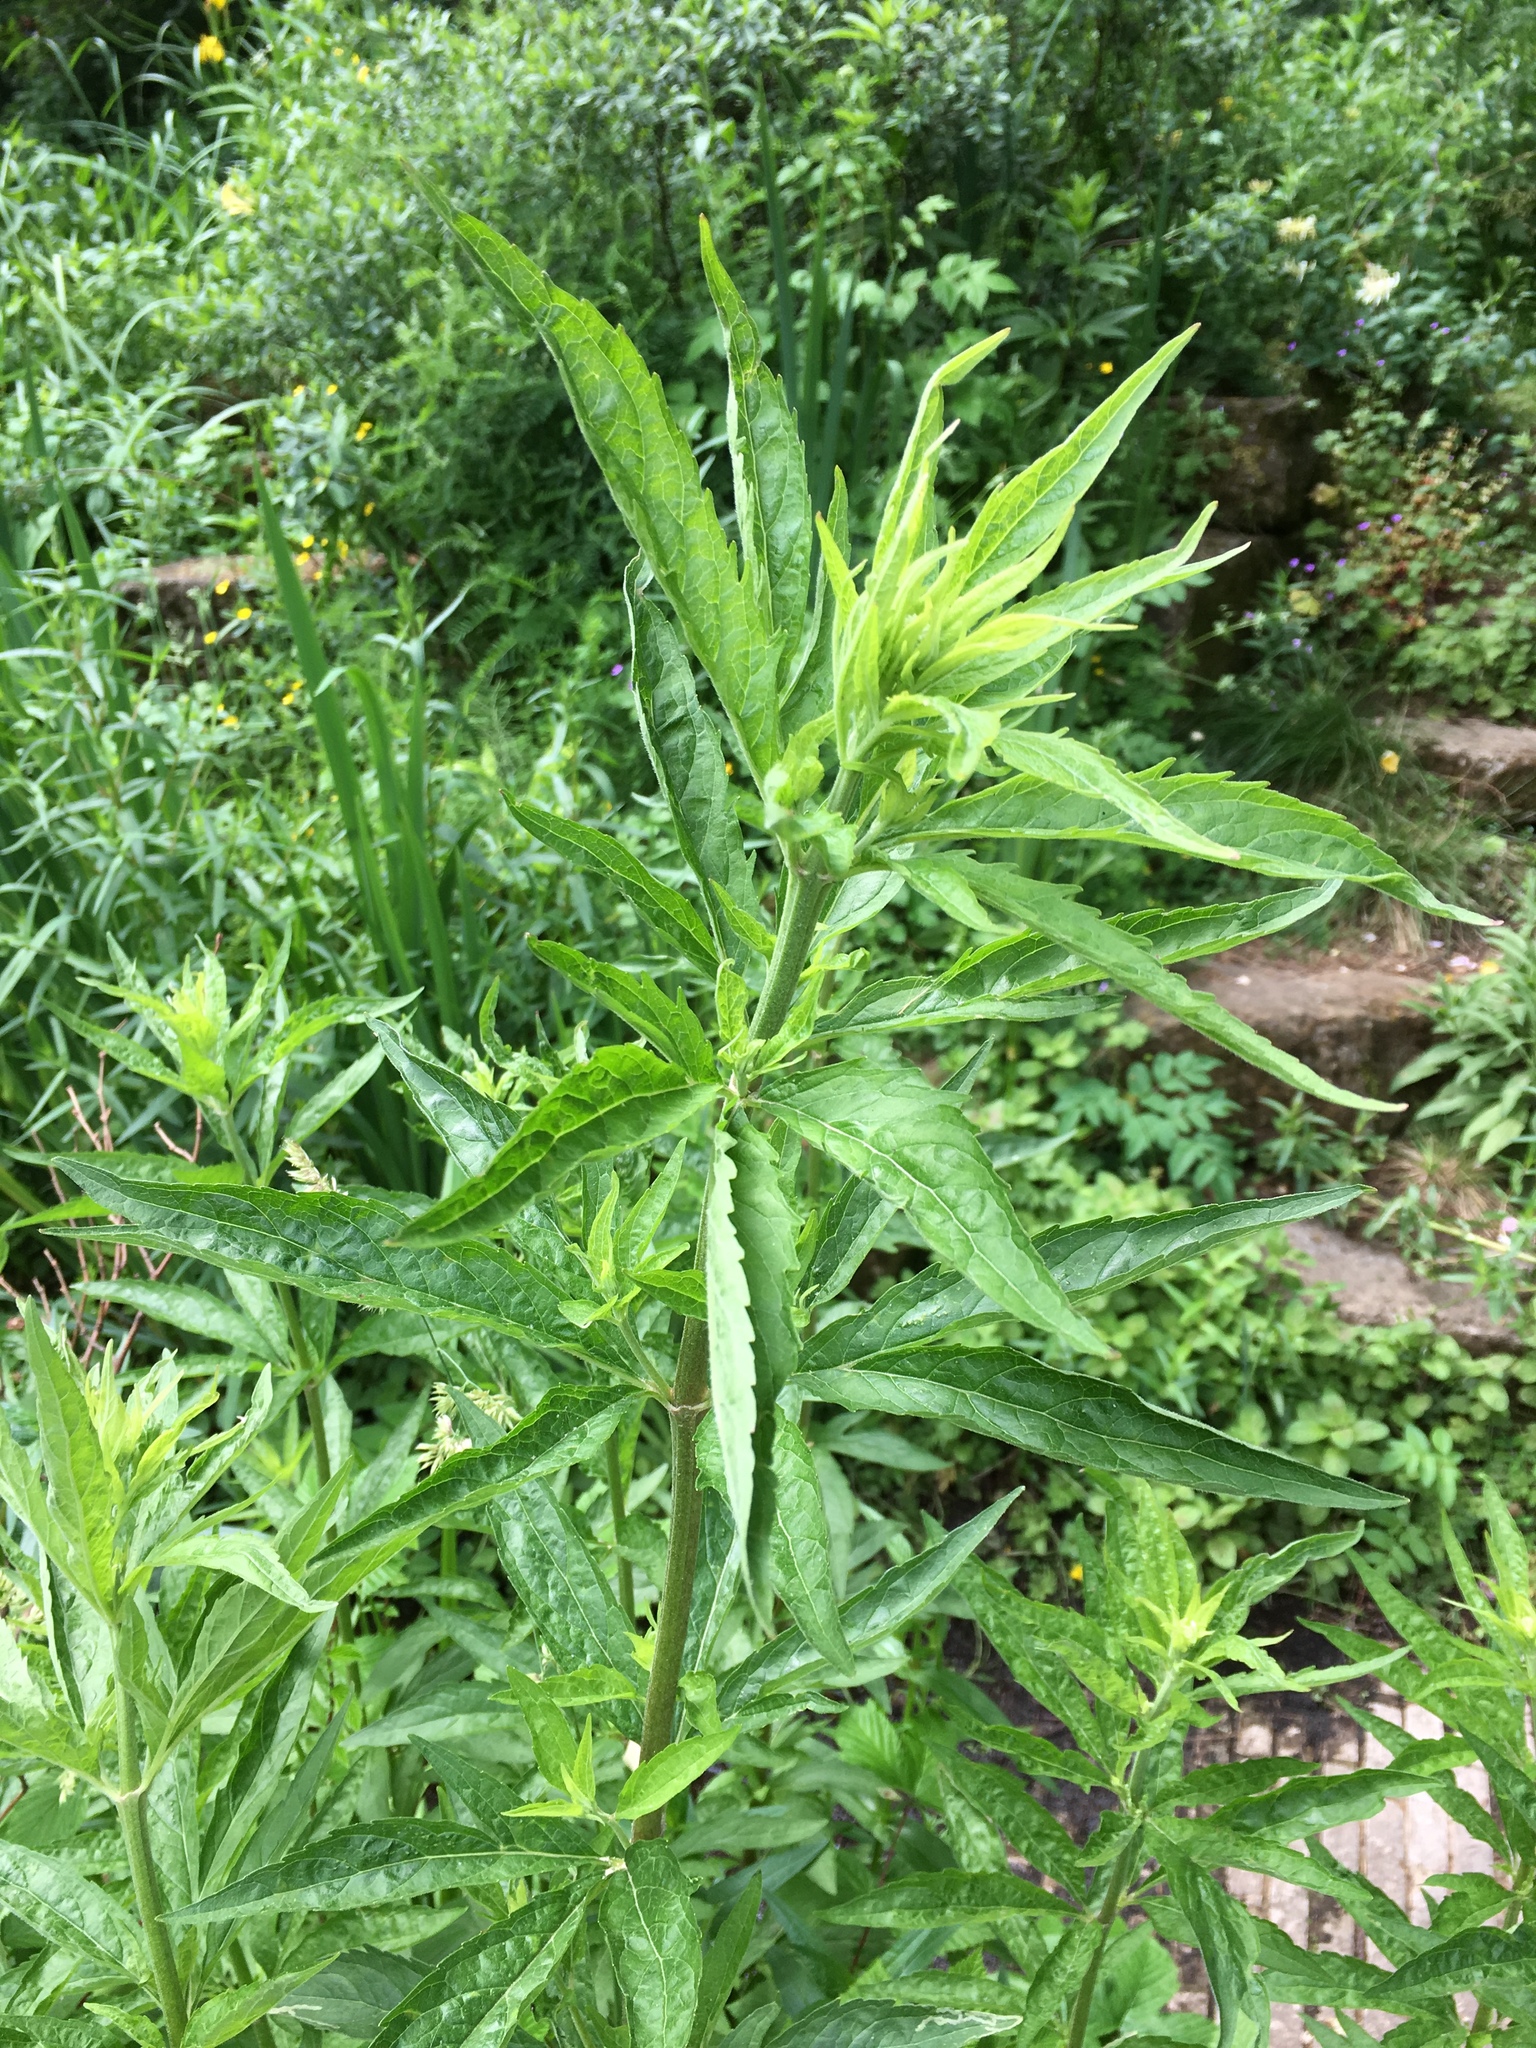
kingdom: Plantae
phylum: Tracheophyta
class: Magnoliopsida
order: Asterales
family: Asteraceae
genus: Eupatorium
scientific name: Eupatorium cannabinum
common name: Hemp-agrimony
